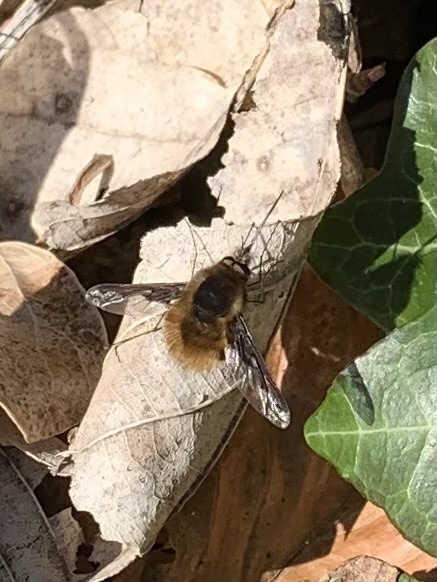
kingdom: Animalia
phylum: Arthropoda
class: Insecta
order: Diptera
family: Bombyliidae
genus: Bombylius
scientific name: Bombylius major
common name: Bee fly
